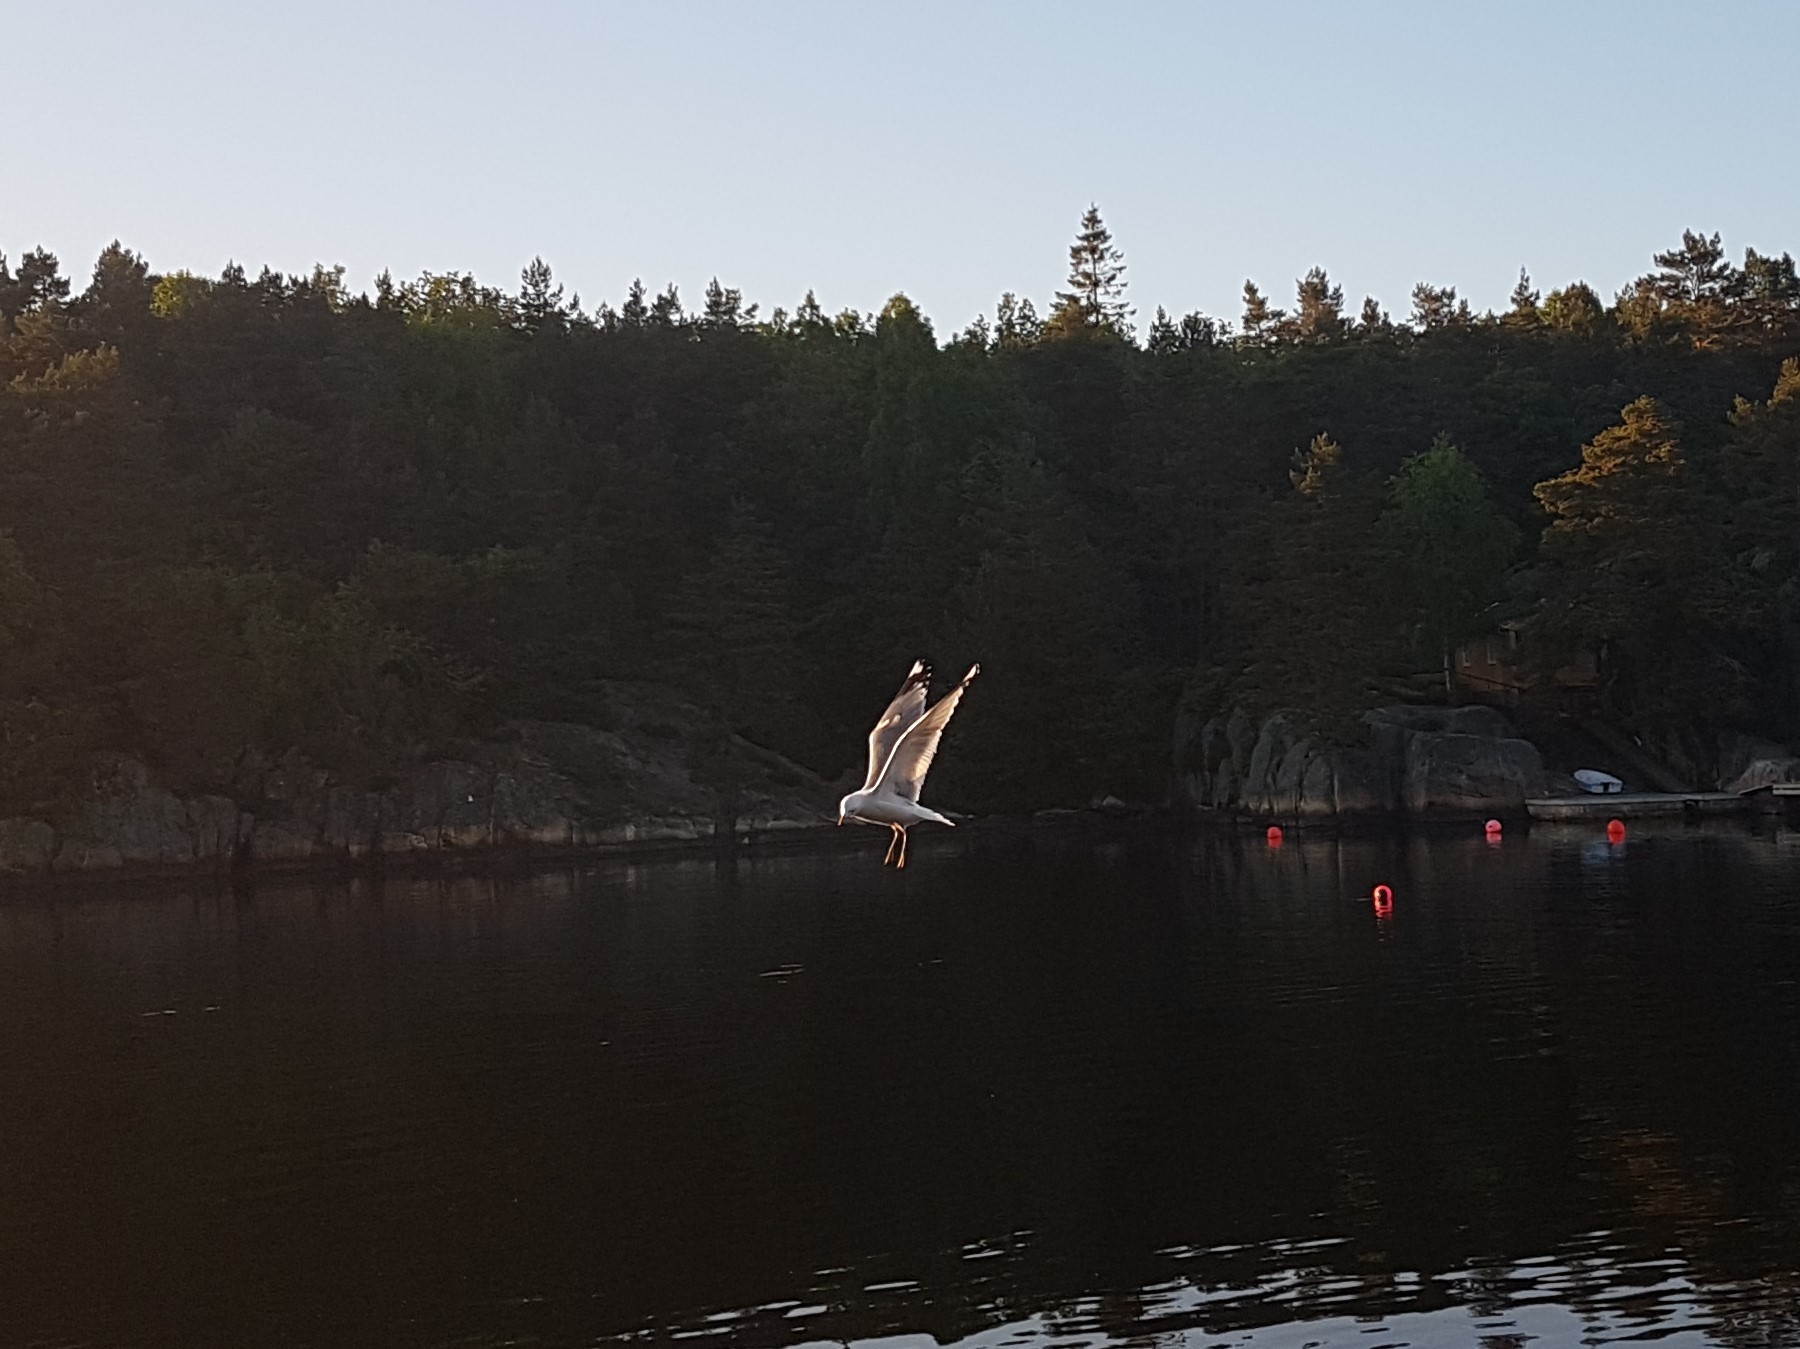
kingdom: Animalia
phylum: Chordata
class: Aves
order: Charadriiformes
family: Laridae
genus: Larus
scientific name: Larus canus
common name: Mew gull
